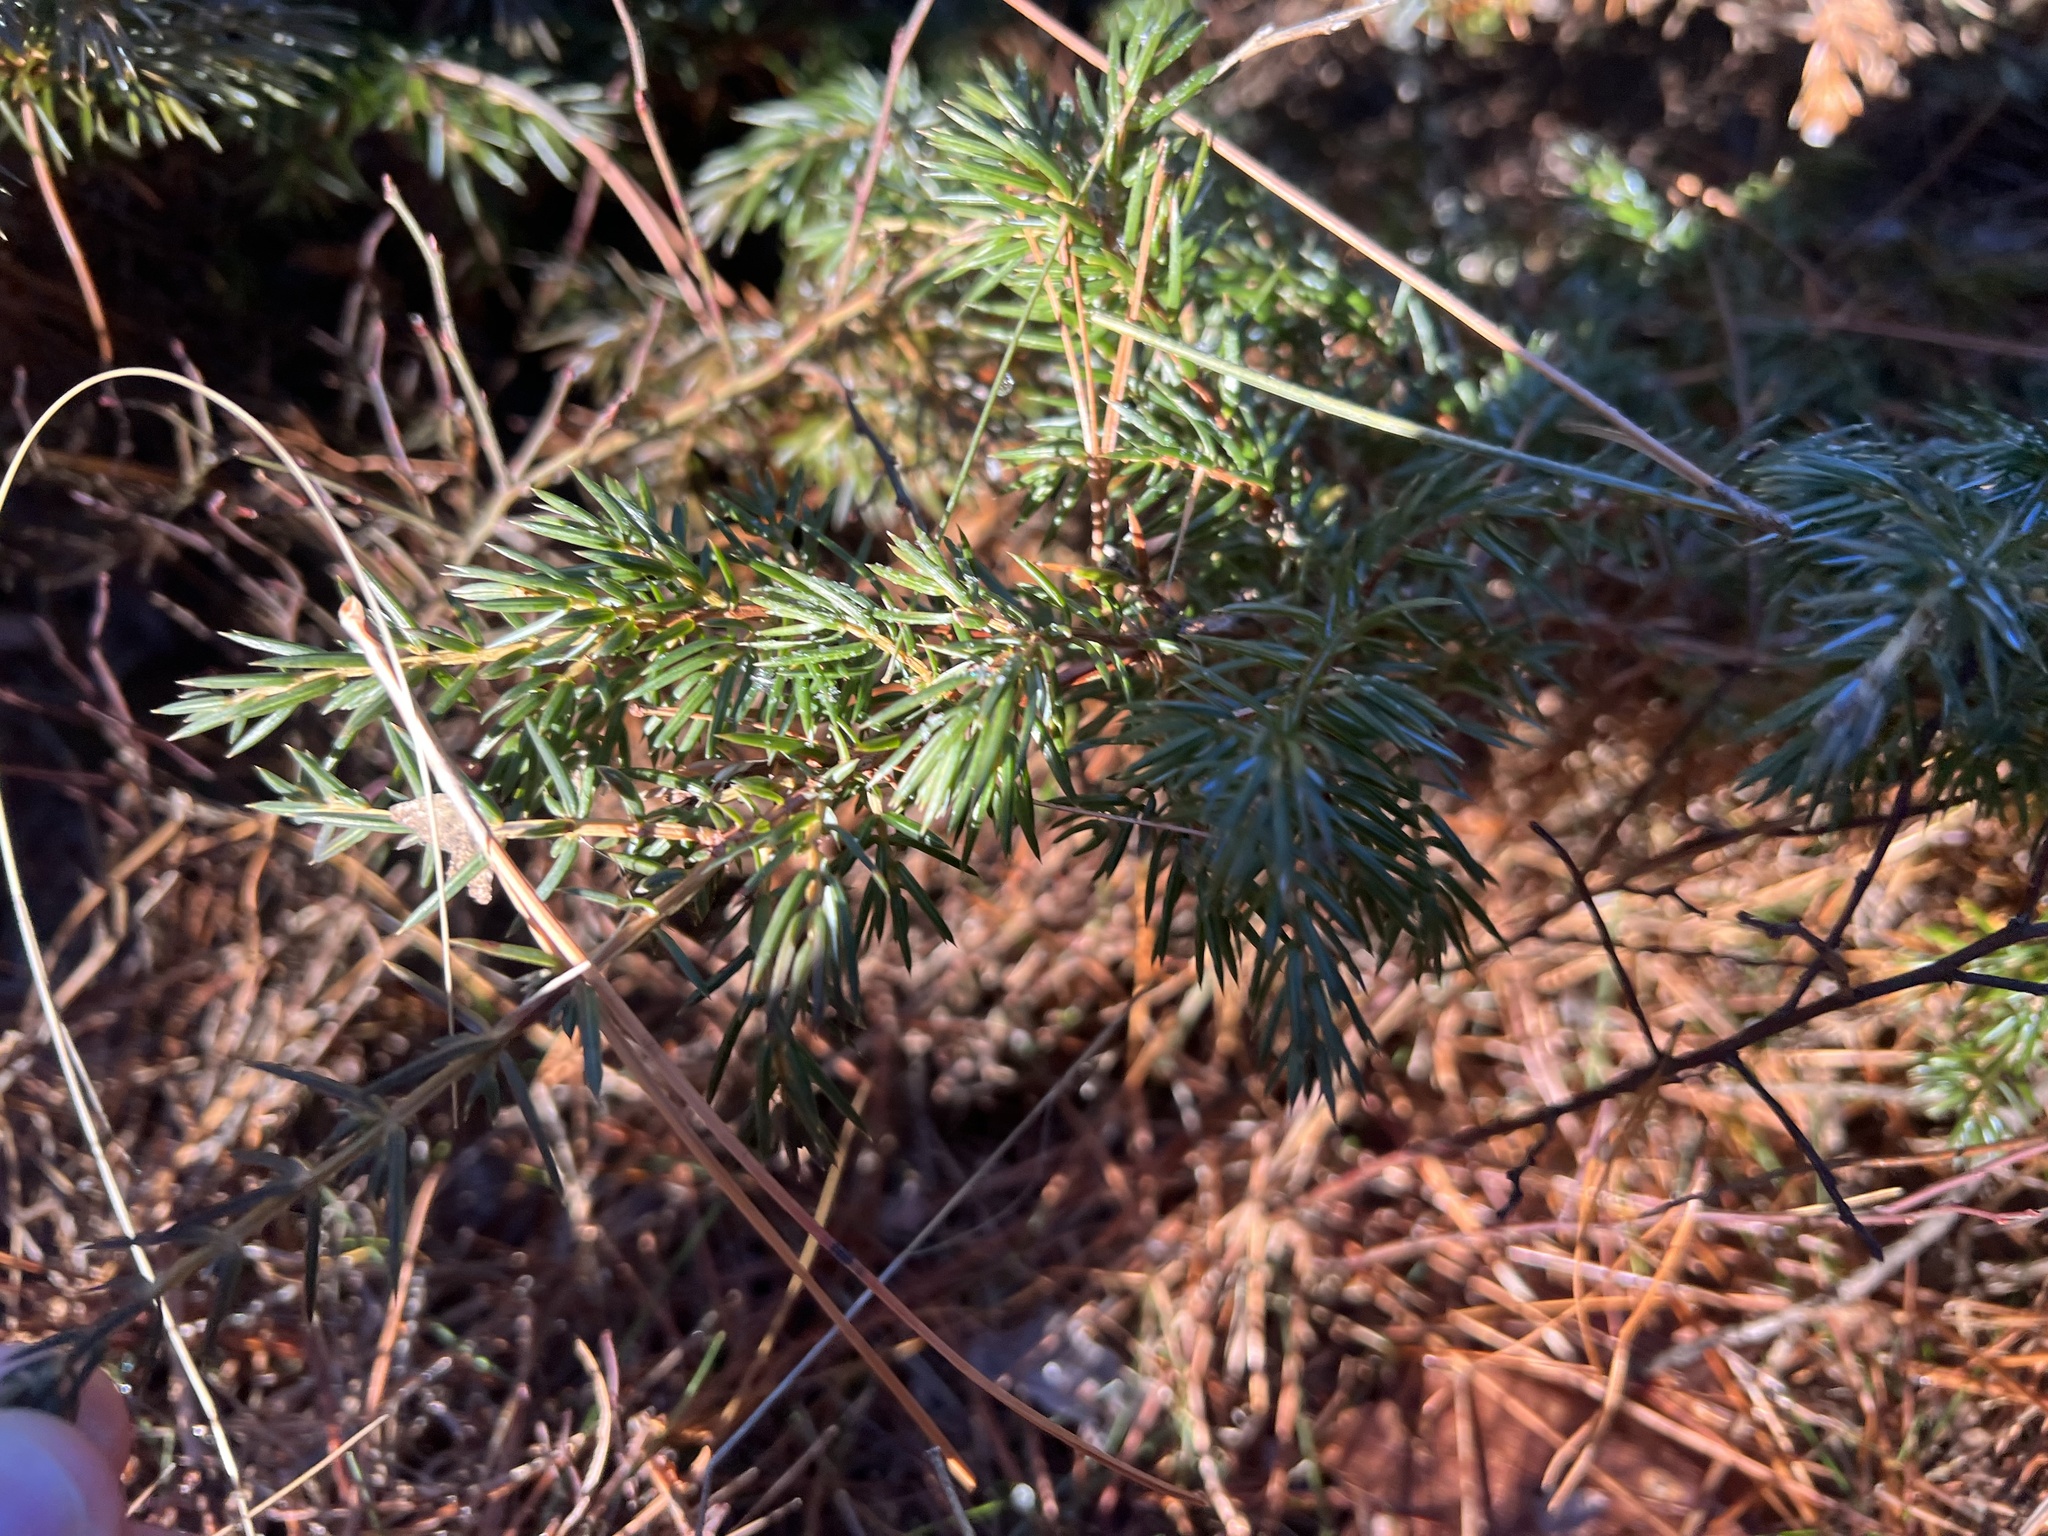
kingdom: Plantae
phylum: Tracheophyta
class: Pinopsida
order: Pinales
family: Cupressaceae
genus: Juniperus
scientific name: Juniperus communis
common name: Common juniper
